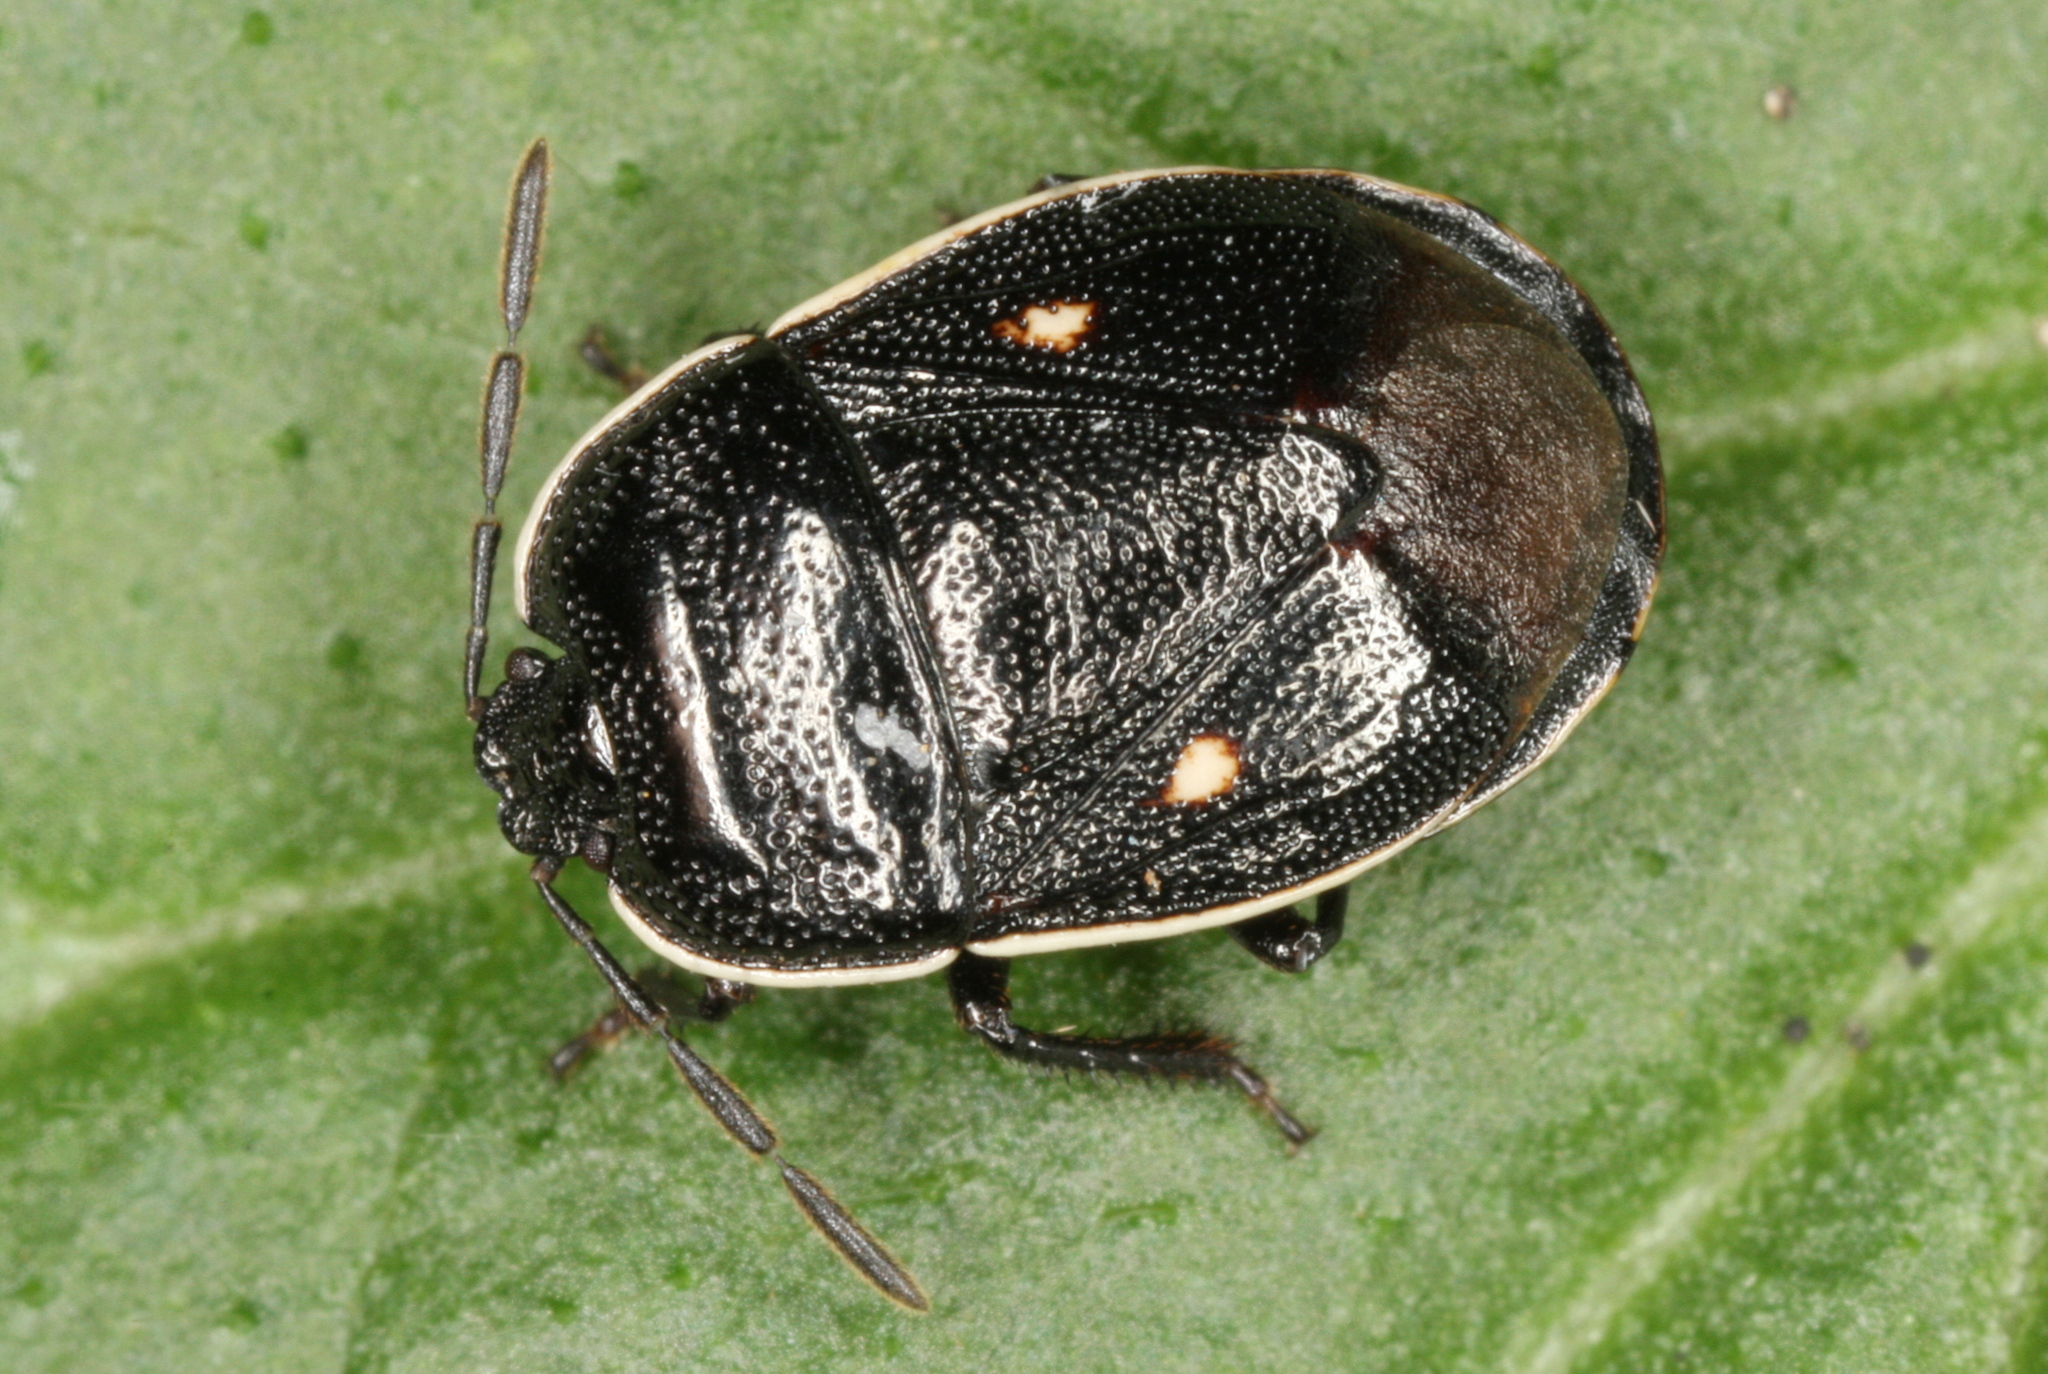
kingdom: Animalia
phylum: Arthropoda
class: Insecta
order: Hemiptera
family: Cydnidae
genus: Adomerus
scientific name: Adomerus biguttatus
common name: Cow wheat shieldbug
